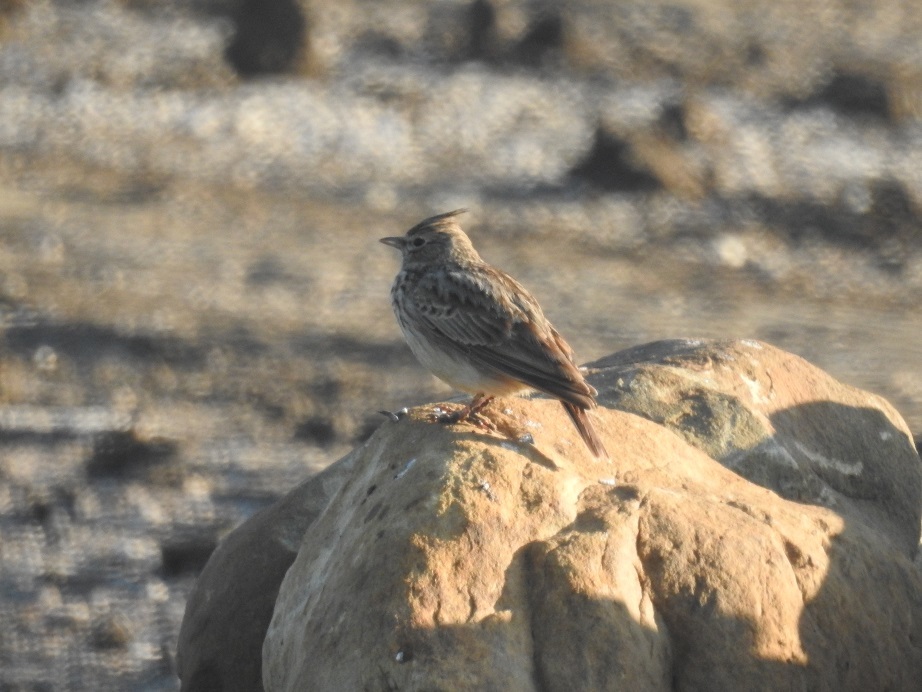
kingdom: Animalia
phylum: Chordata
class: Aves
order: Passeriformes
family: Alaudidae
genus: Galerida
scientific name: Galerida theklae
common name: Thekla lark
